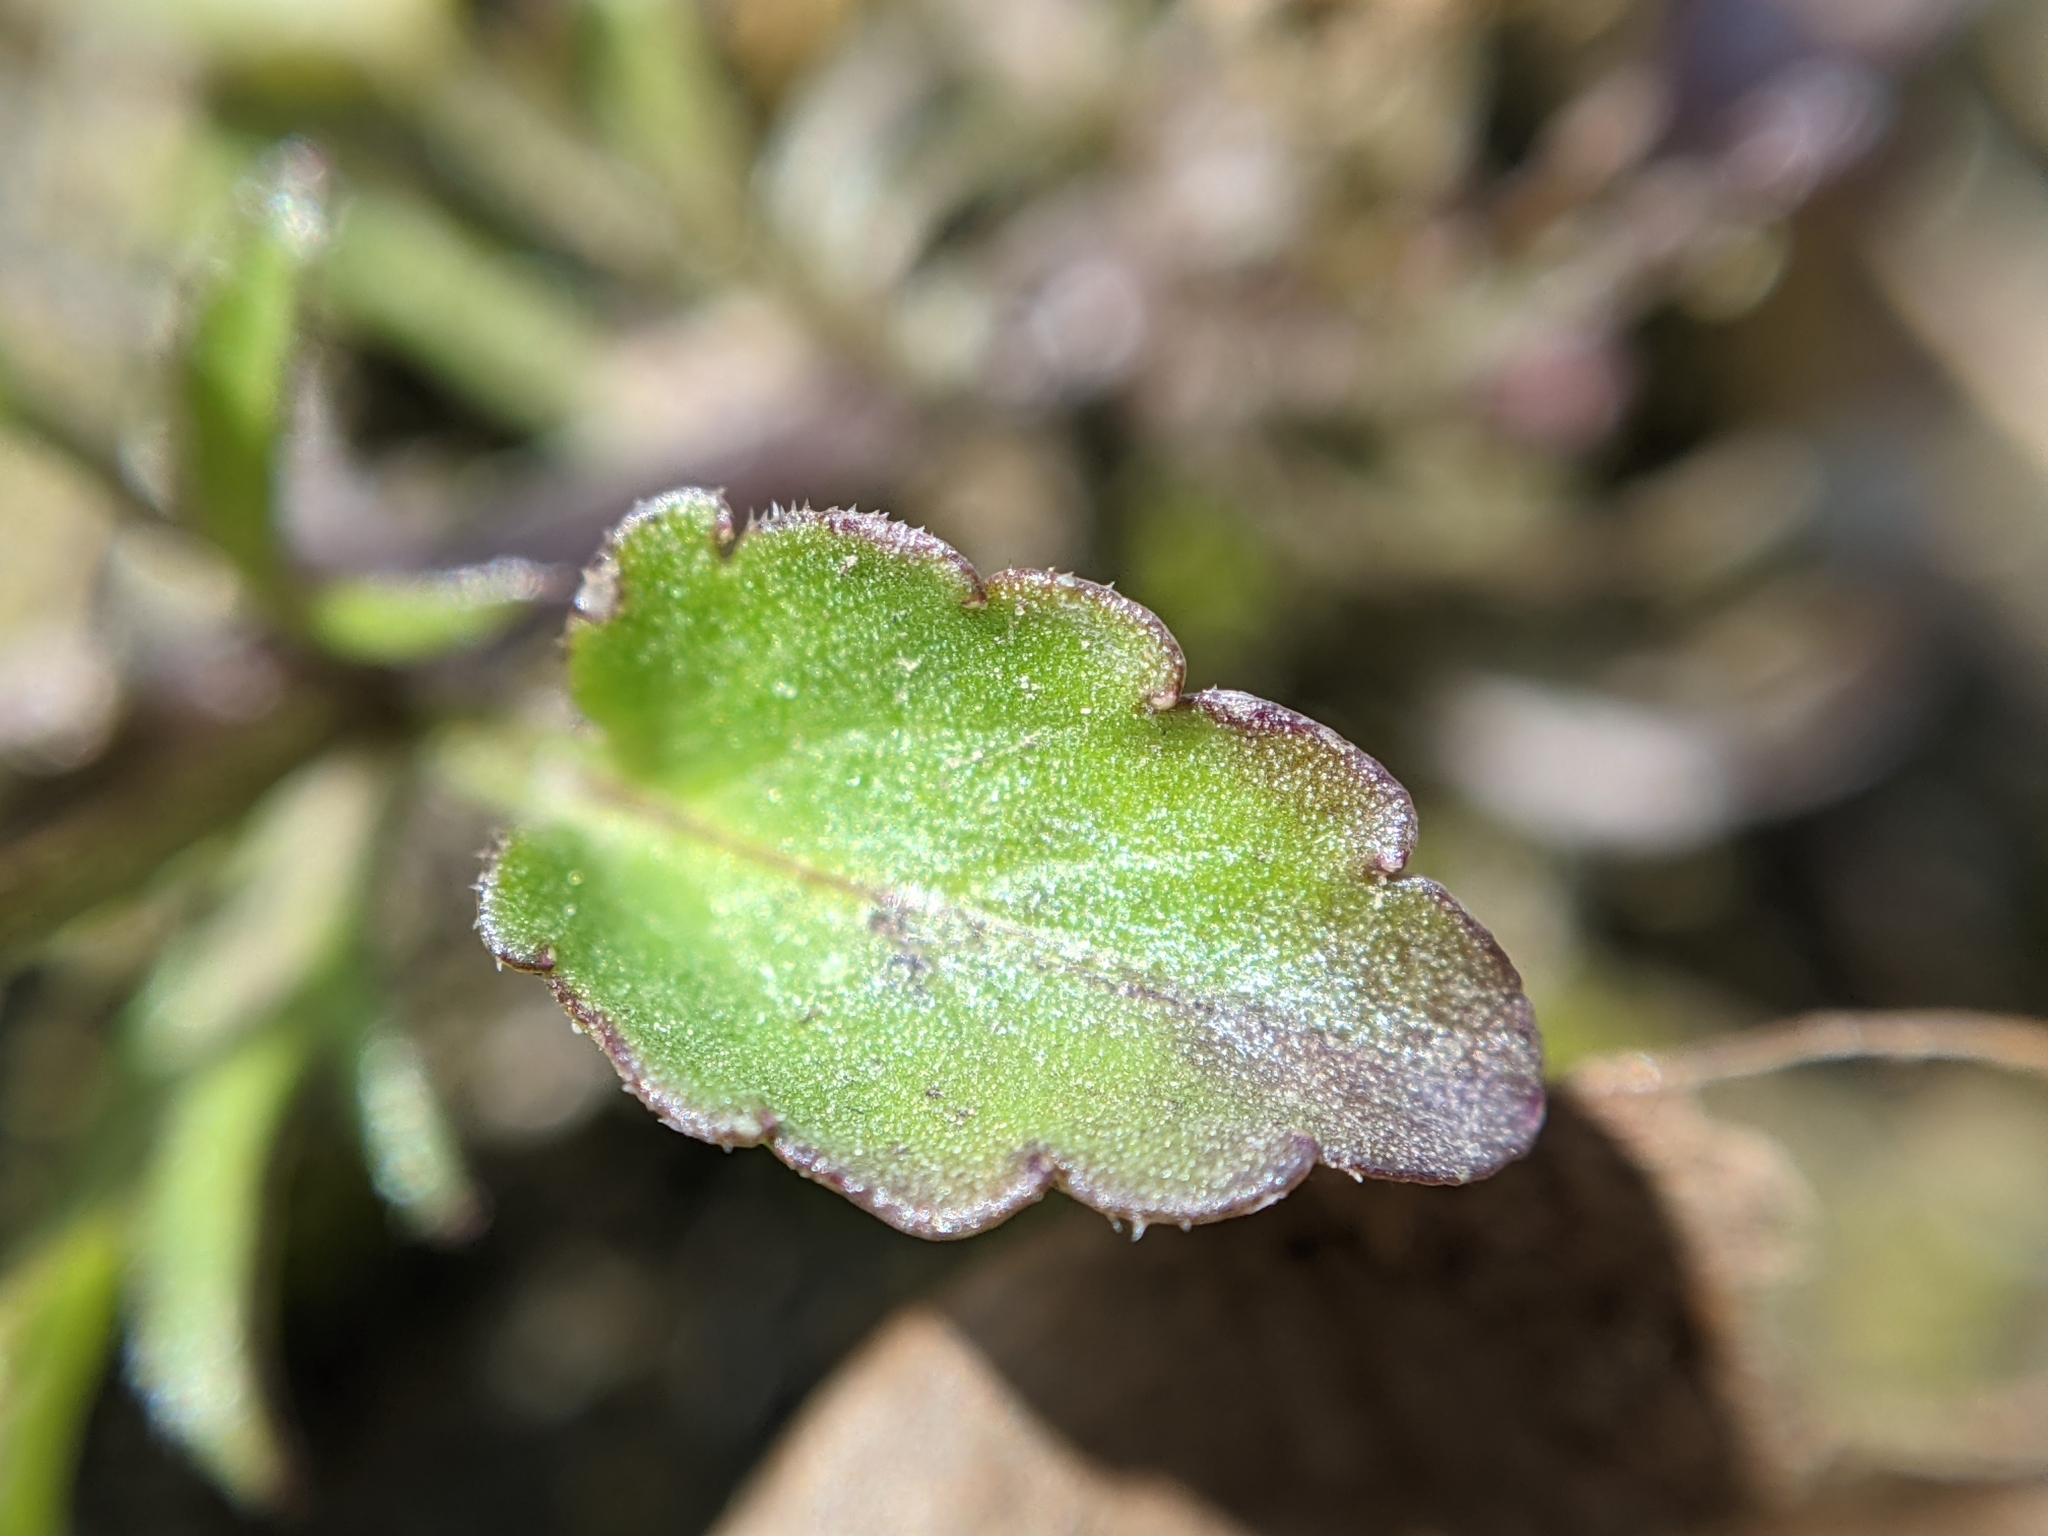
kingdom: Plantae
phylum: Tracheophyta
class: Magnoliopsida
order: Malpighiales
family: Violaceae
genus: Viola
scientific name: Viola arvensis
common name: Field pansy
